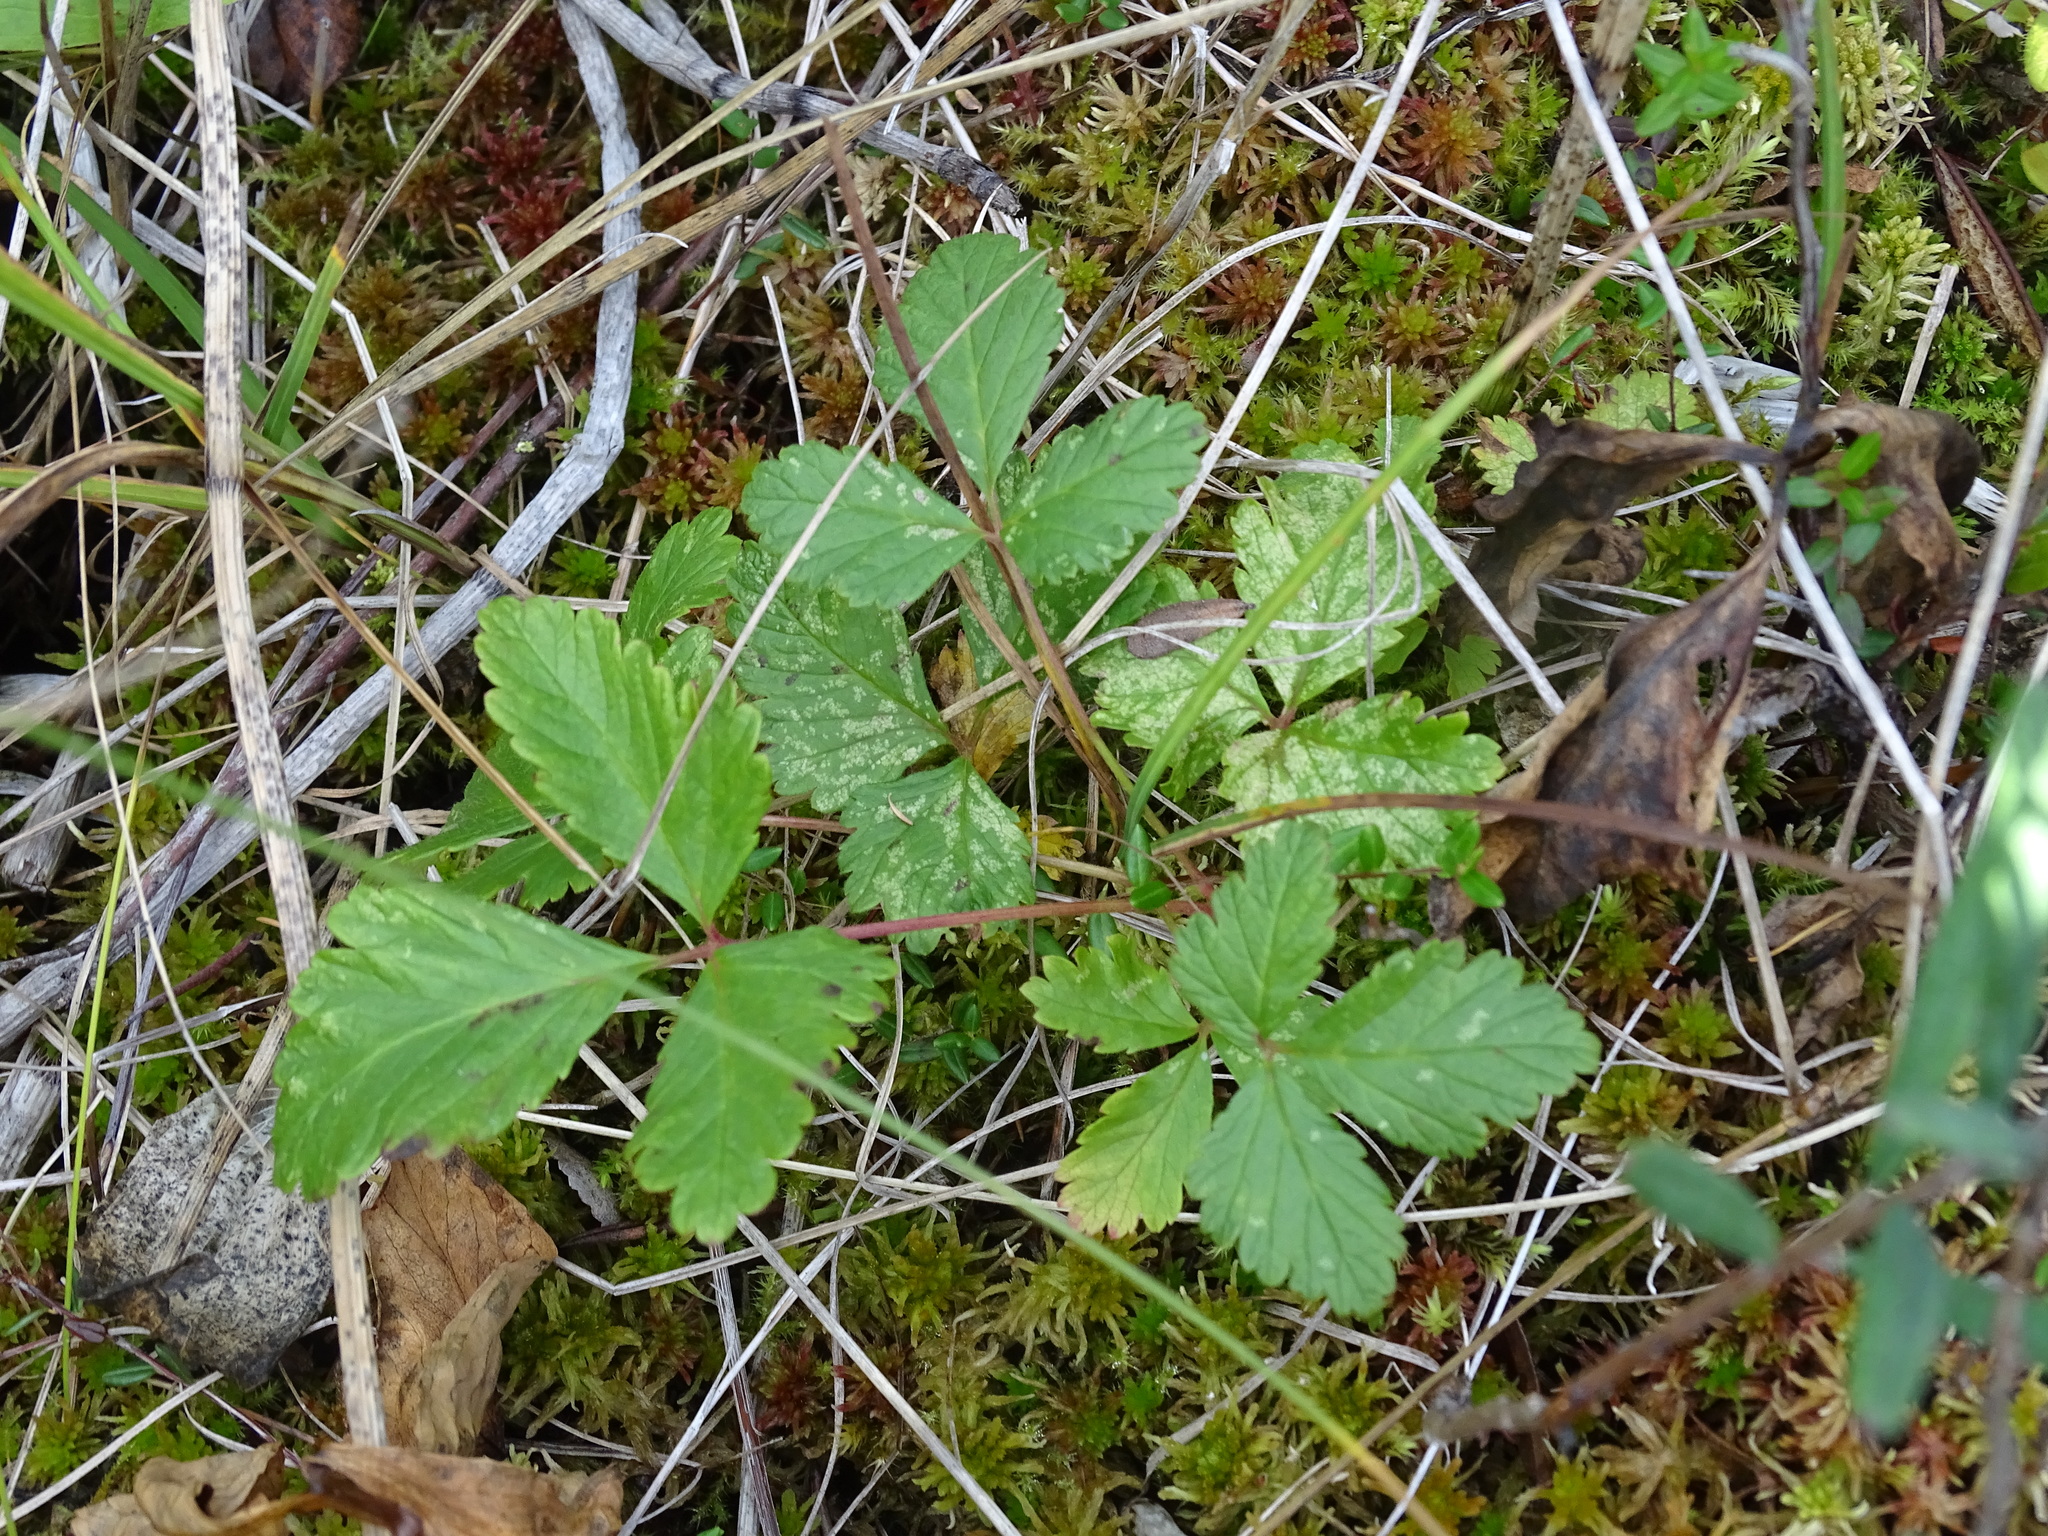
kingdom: Plantae
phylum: Tracheophyta
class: Magnoliopsida
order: Rosales
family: Rosaceae
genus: Rubus
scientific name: Rubus arcticus
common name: Arctic bramble
